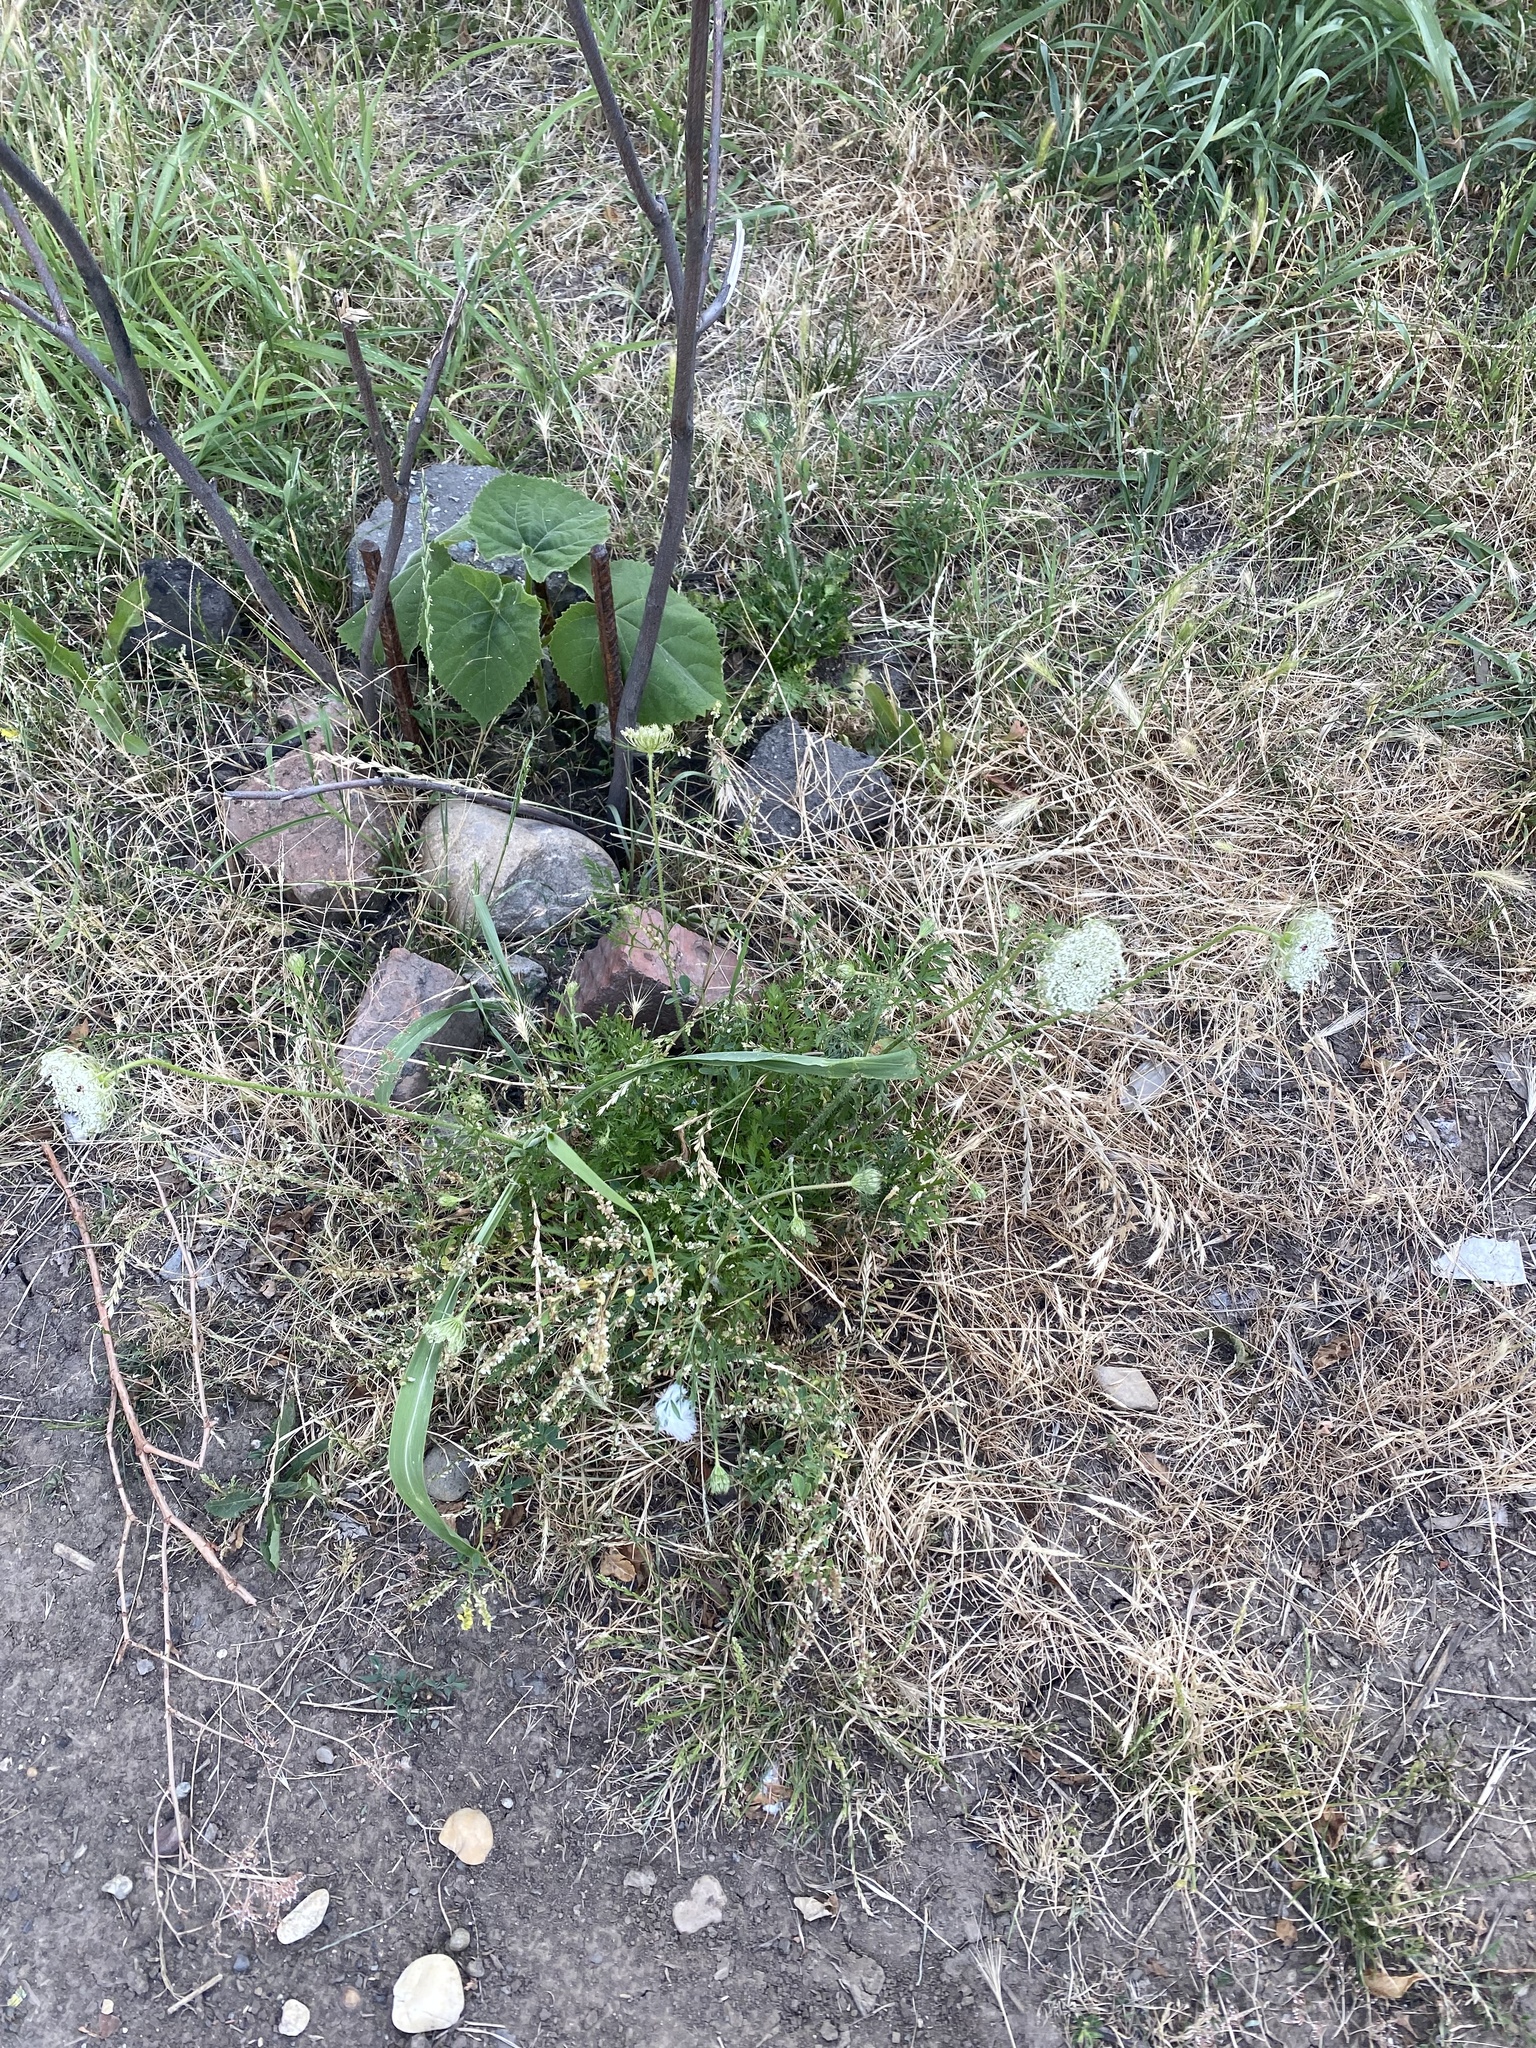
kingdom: Plantae
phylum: Tracheophyta
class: Magnoliopsida
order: Apiales
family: Apiaceae
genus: Daucus
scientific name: Daucus carota
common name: Wild carrot
